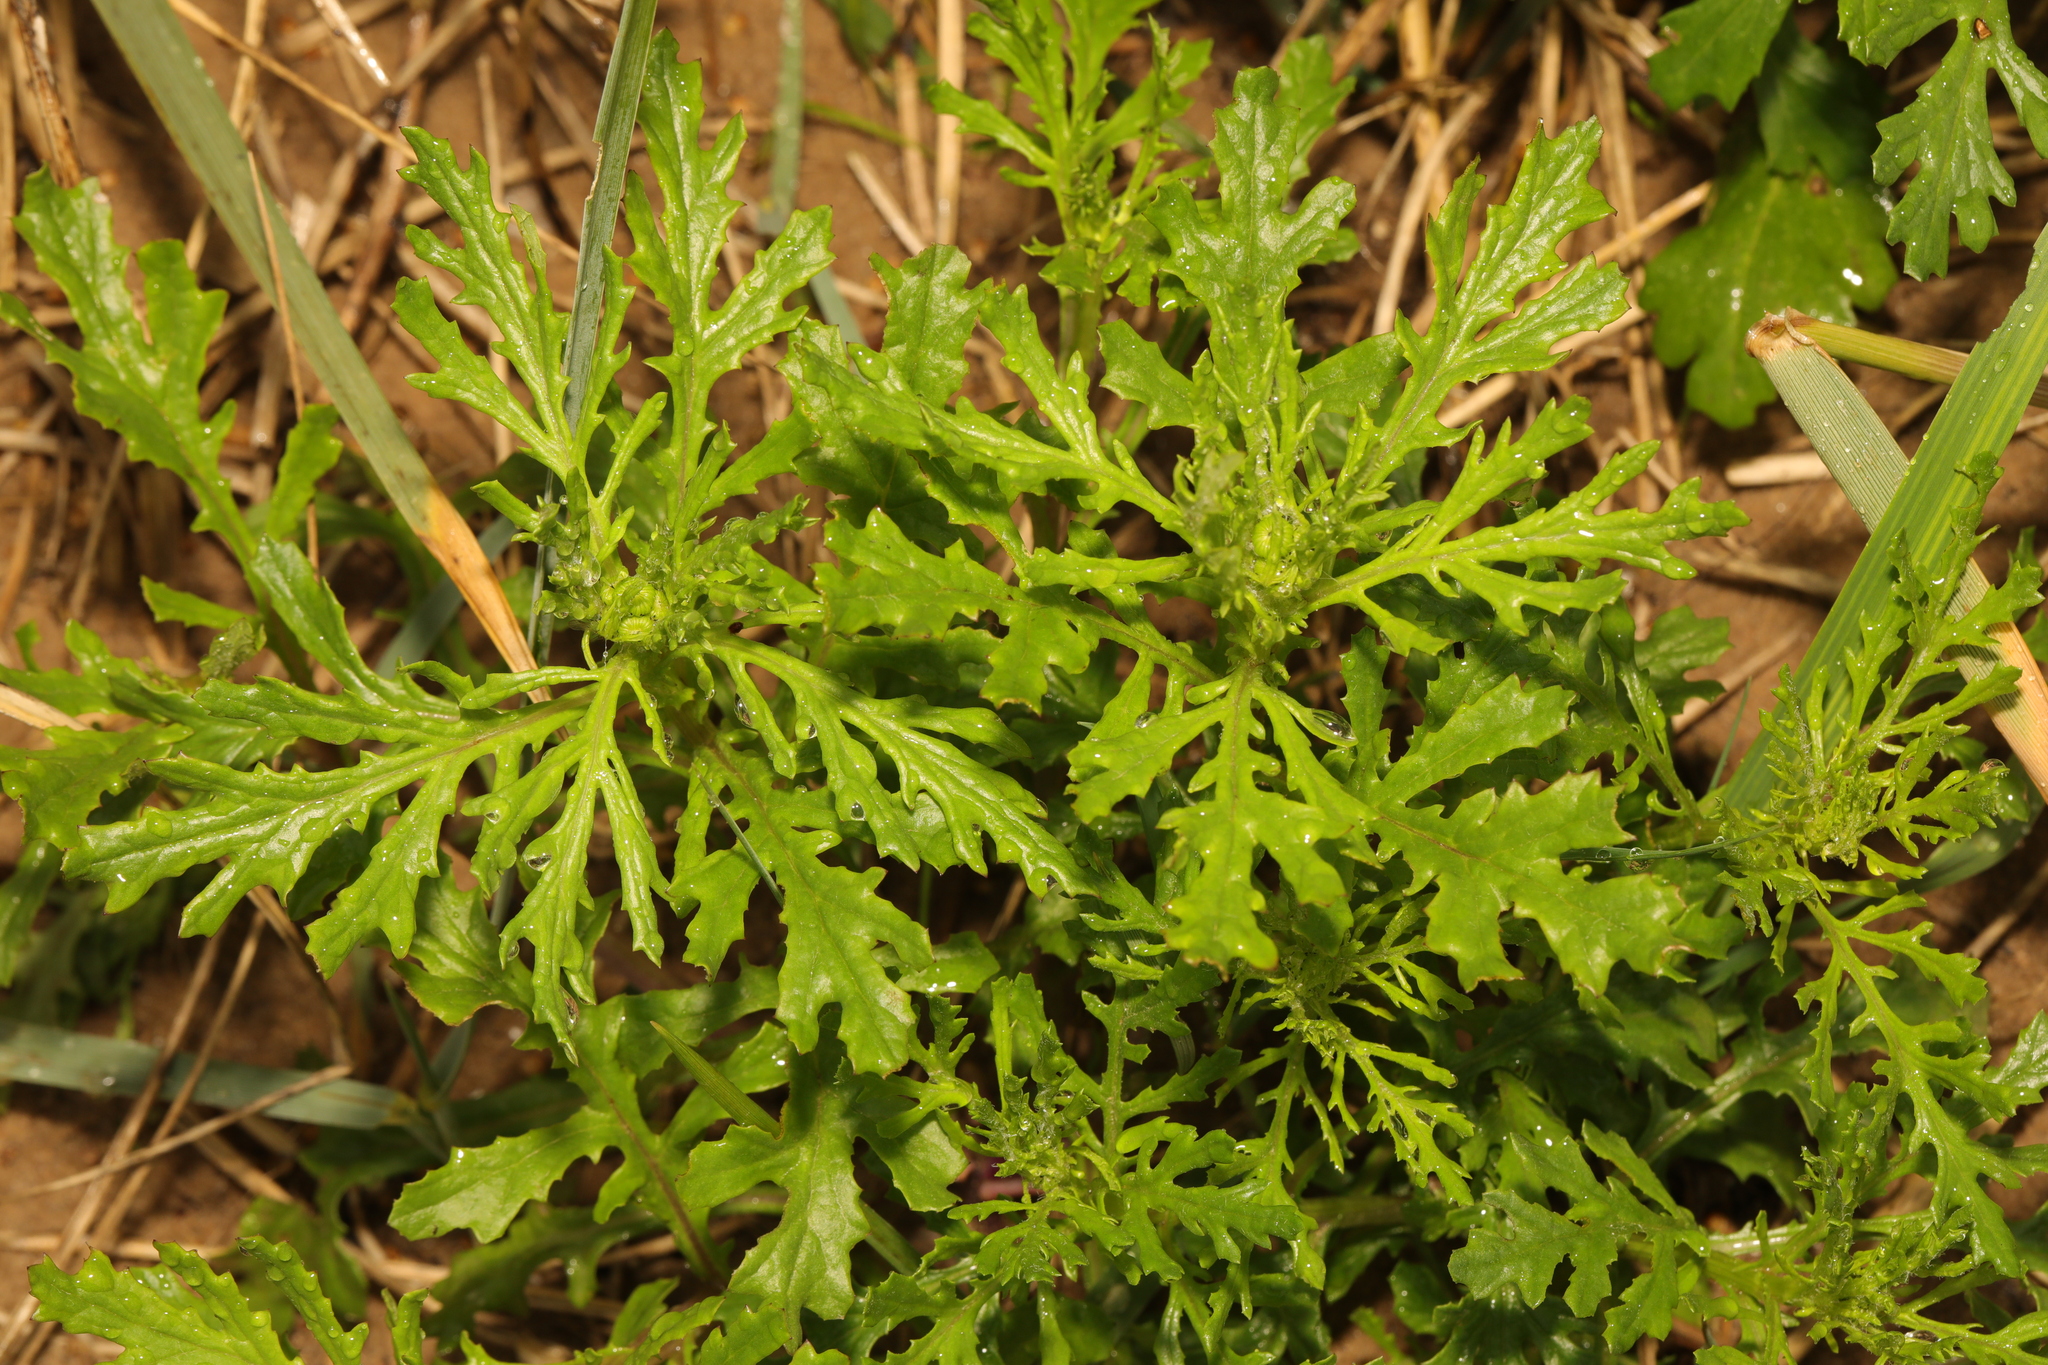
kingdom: Plantae
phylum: Tracheophyta
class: Magnoliopsida
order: Asterales
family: Asteraceae
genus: Senecio
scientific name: Senecio squalidus
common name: Oxford ragwort
